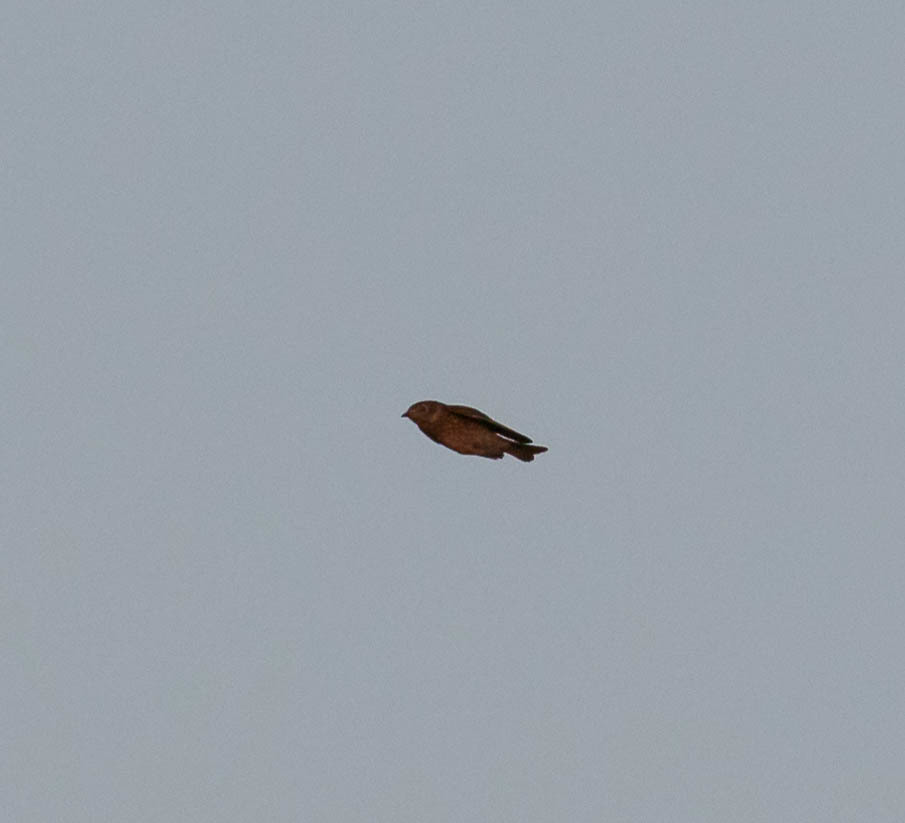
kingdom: Animalia
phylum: Chordata
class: Aves
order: Passeriformes
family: Turdidae
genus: Sialia
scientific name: Sialia sialis
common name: Eastern bluebird
